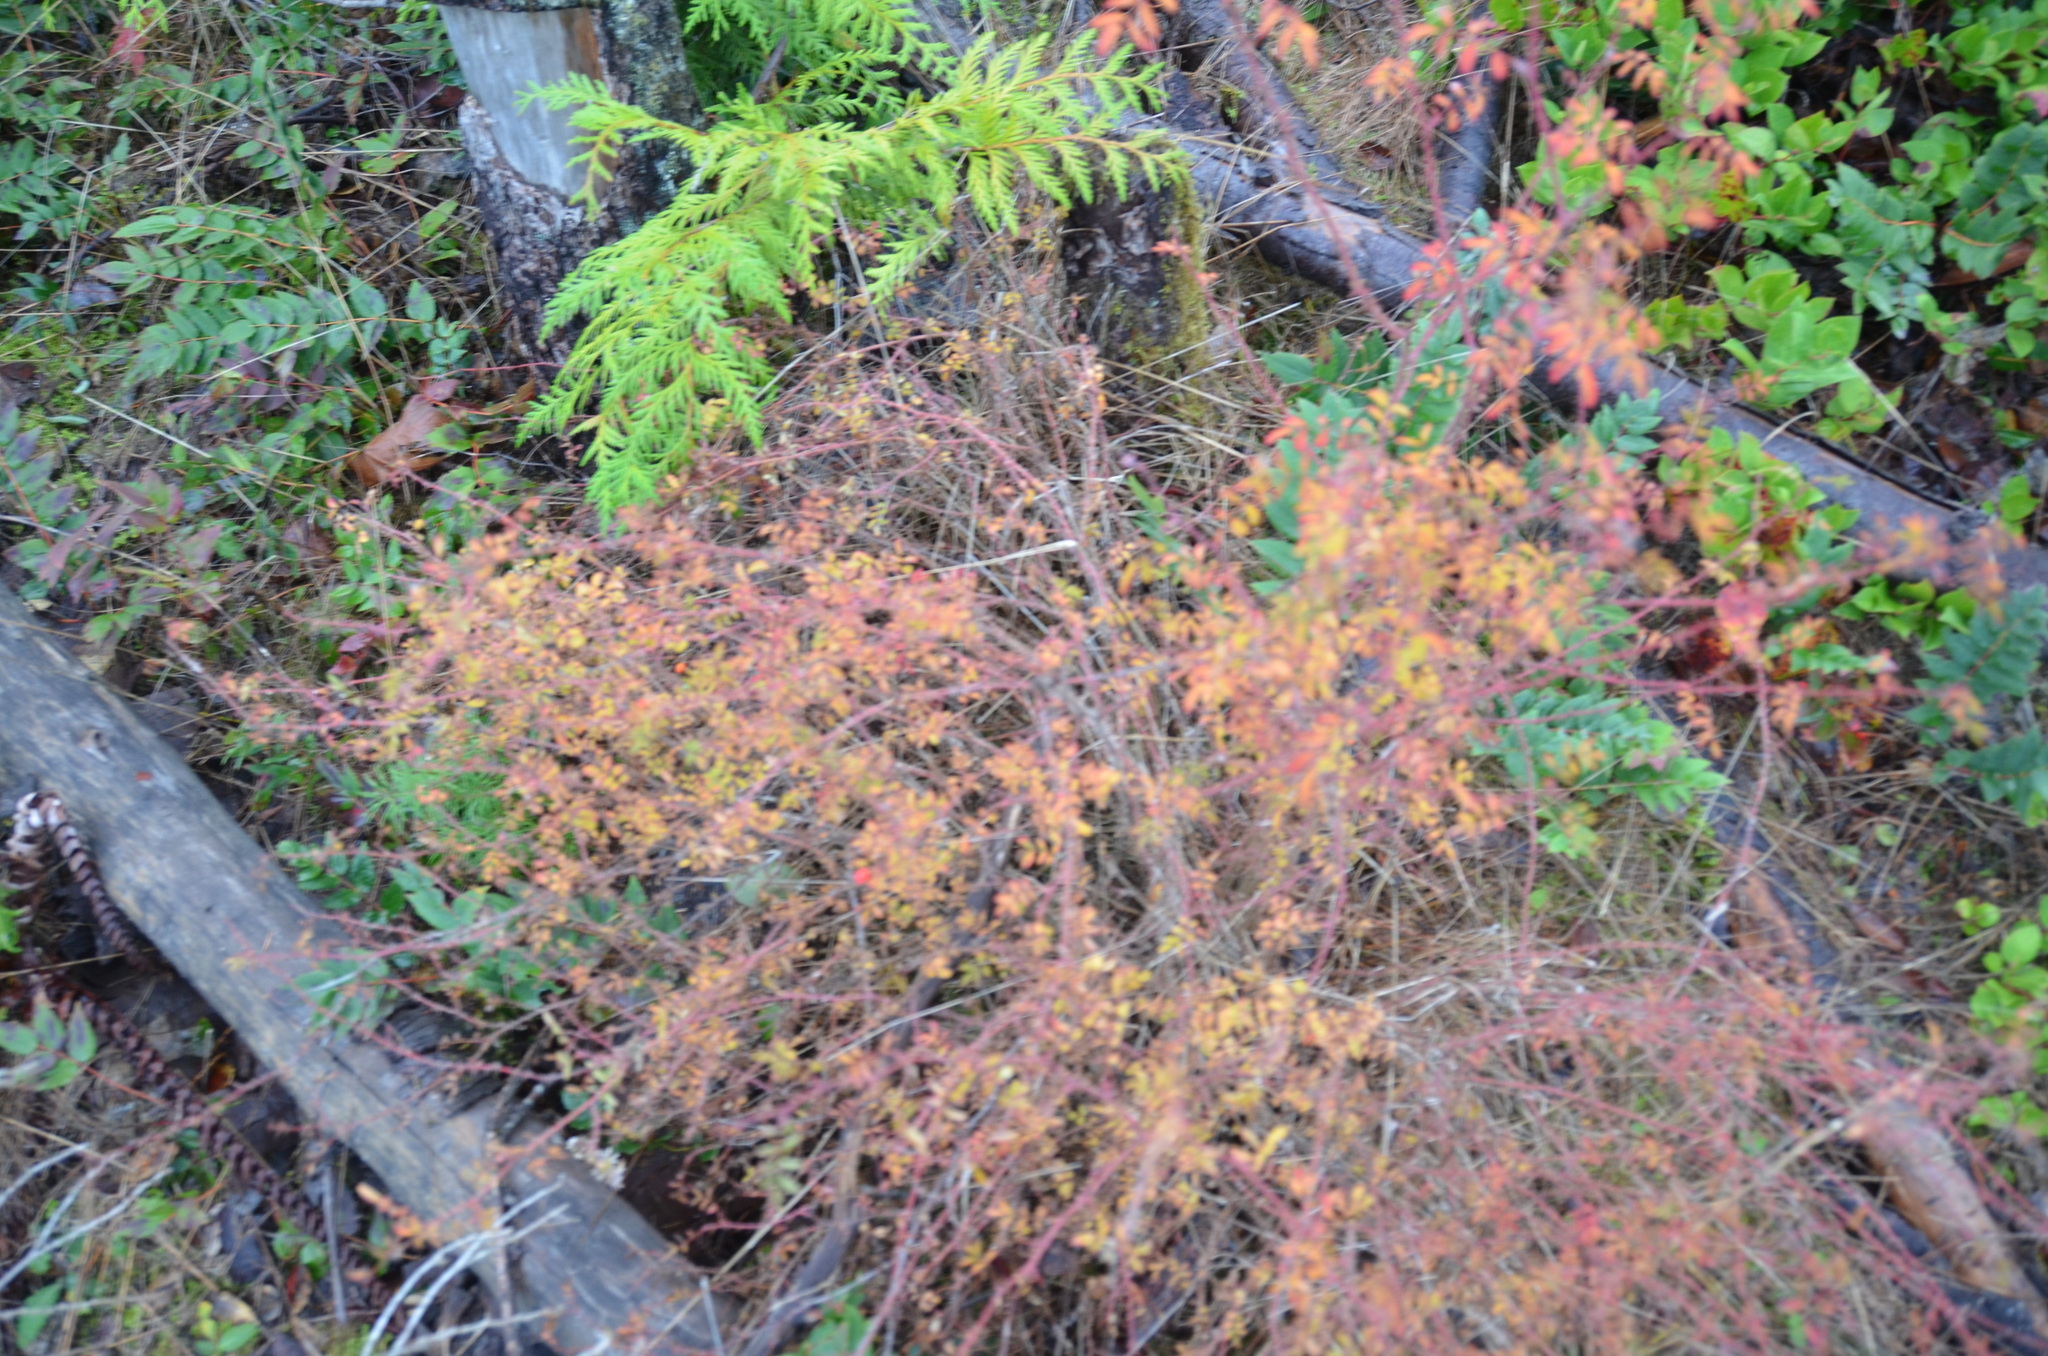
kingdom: Plantae
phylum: Tracheophyta
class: Magnoliopsida
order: Rosales
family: Rosaceae
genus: Rosa
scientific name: Rosa gymnocarpa
